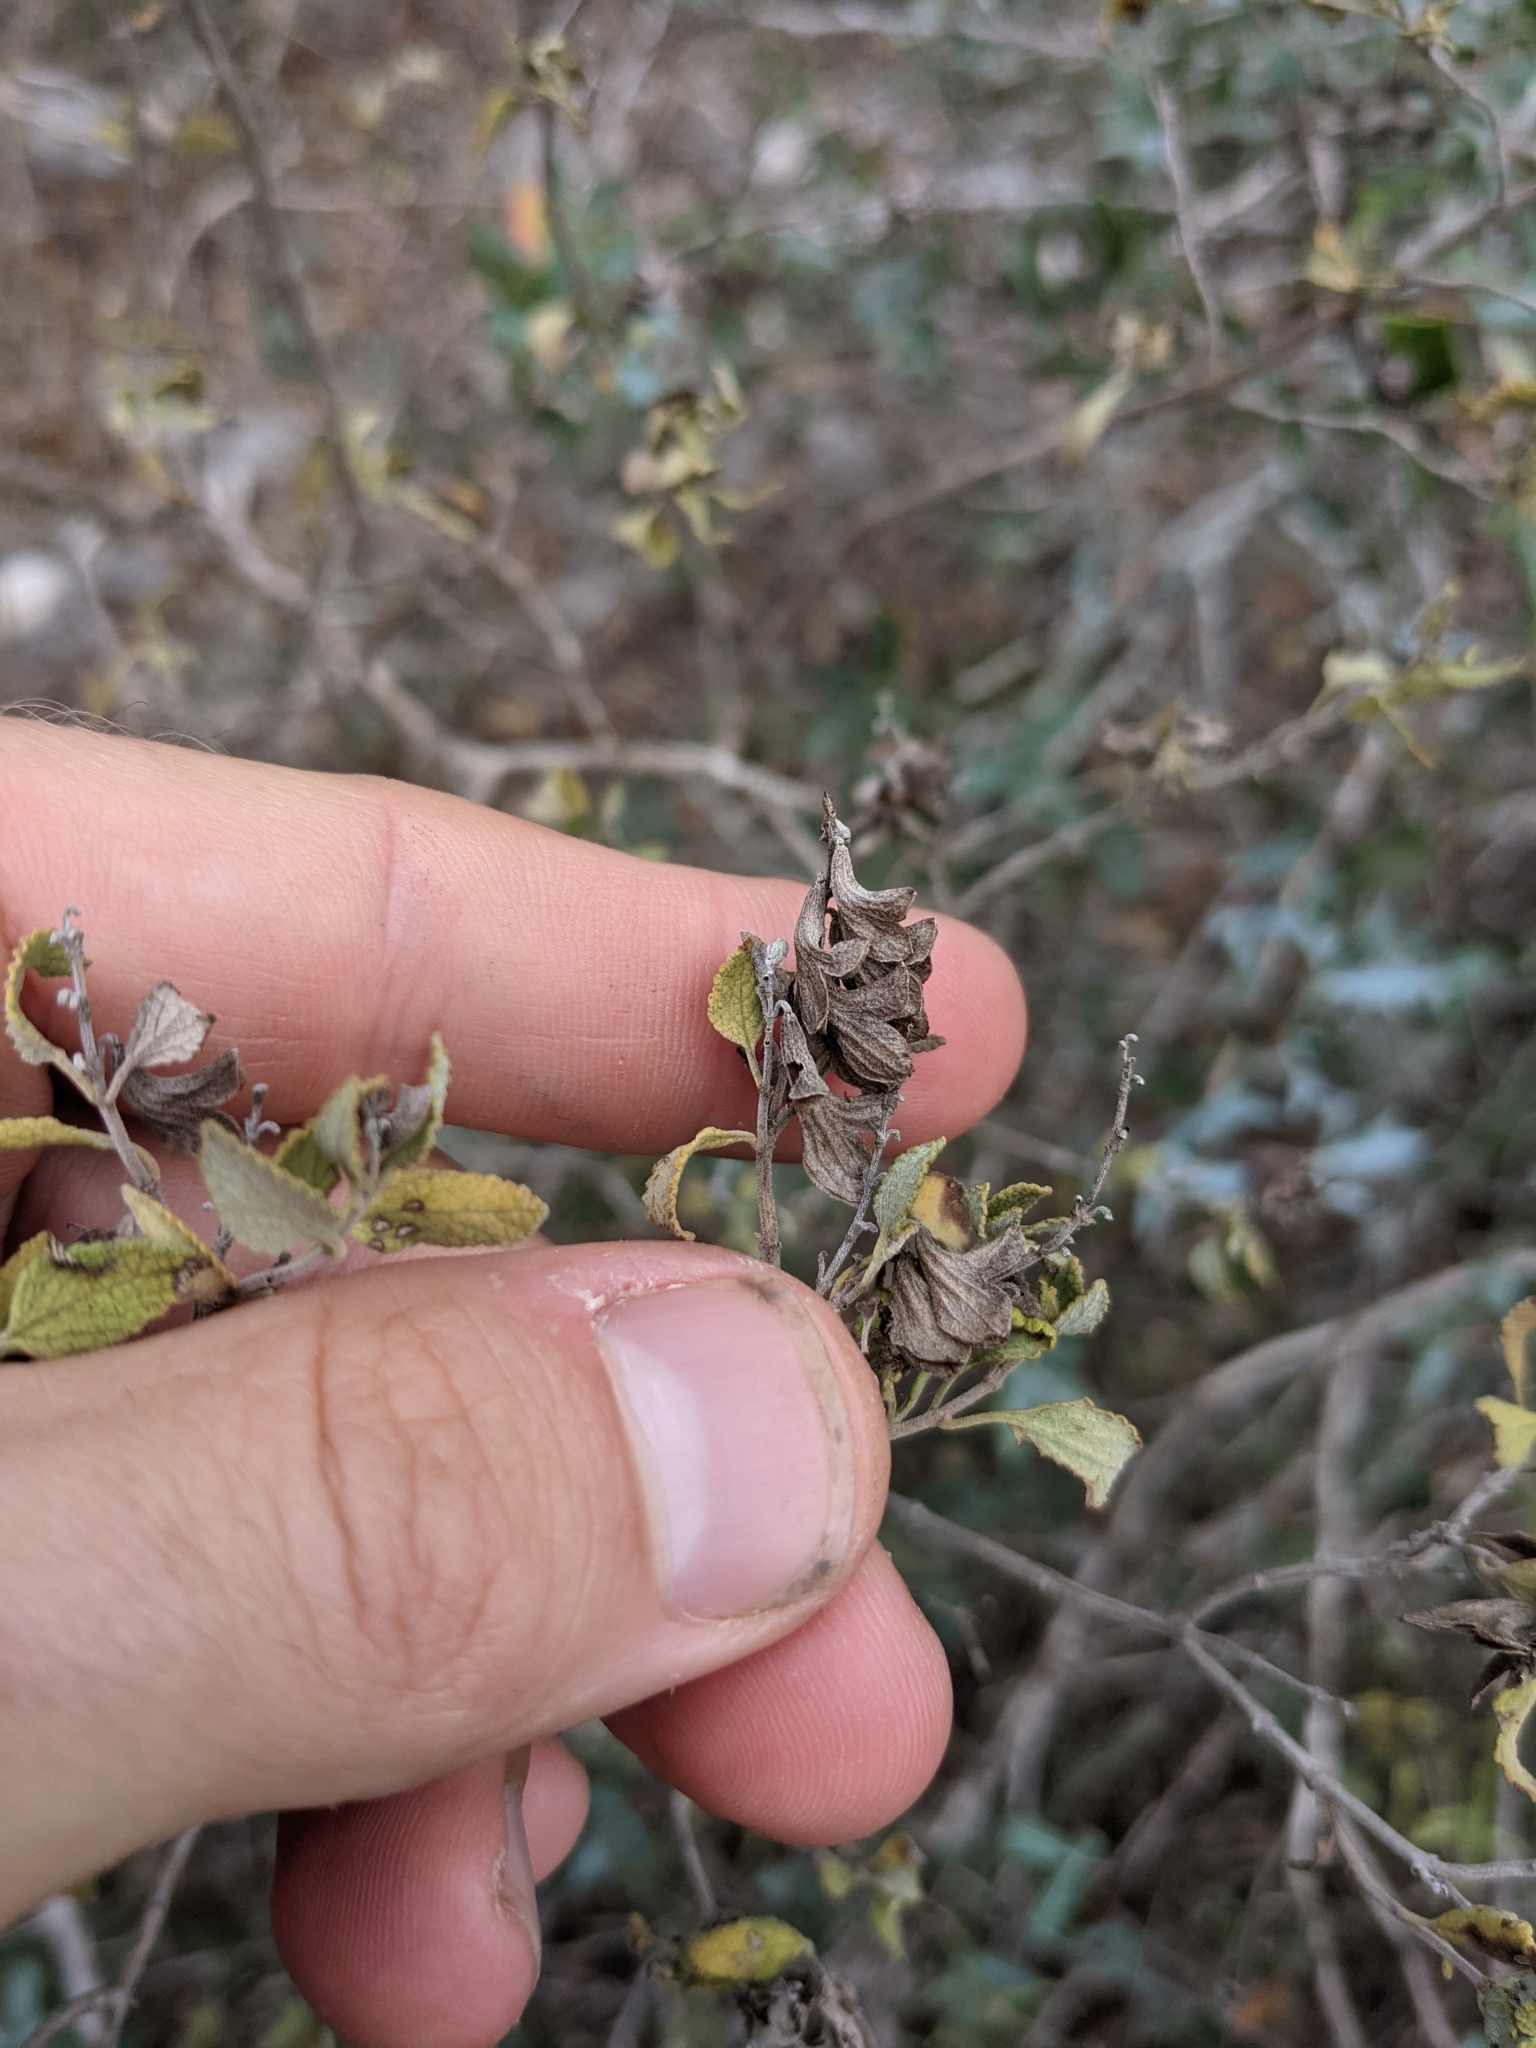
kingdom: Plantae
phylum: Tracheophyta
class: Magnoliopsida
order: Lamiales
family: Lamiaceae
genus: Salvia
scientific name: Salvia ballotiflora
